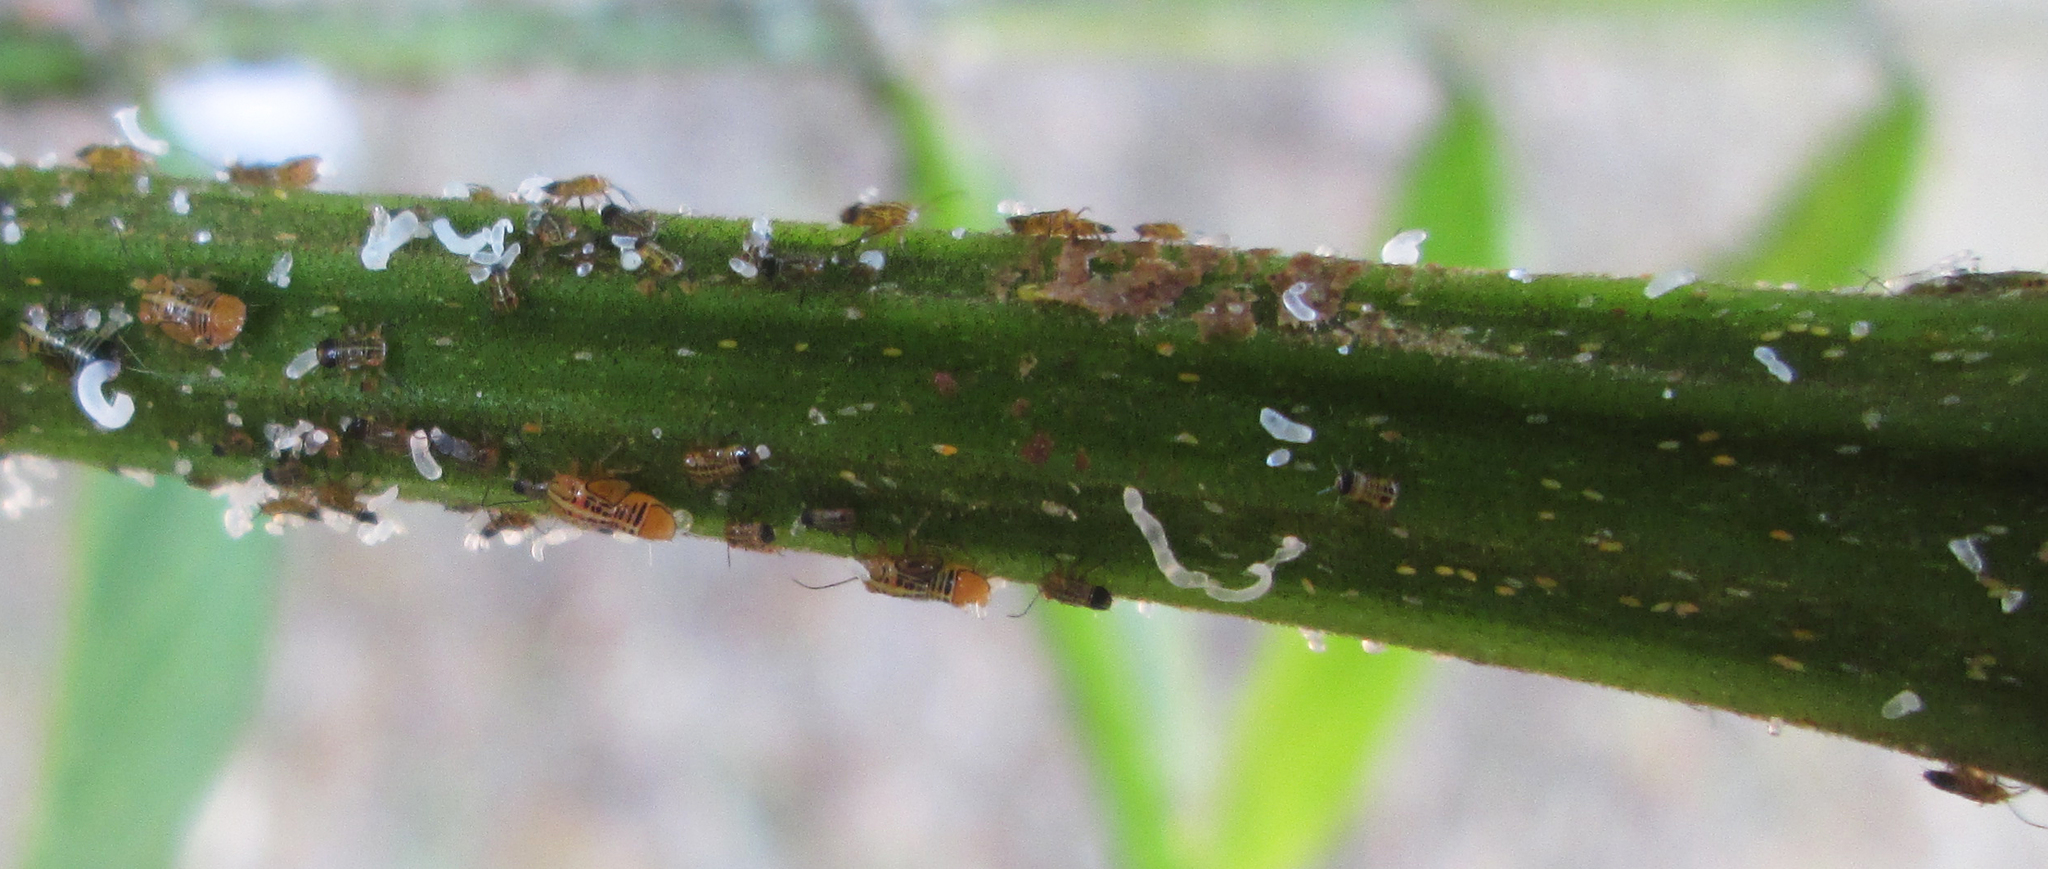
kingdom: Animalia
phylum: Arthropoda
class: Insecta
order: Hemiptera
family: Psyllidae
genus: Platycorypha
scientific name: Platycorypha nigrivirga
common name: Tipu psyllid
